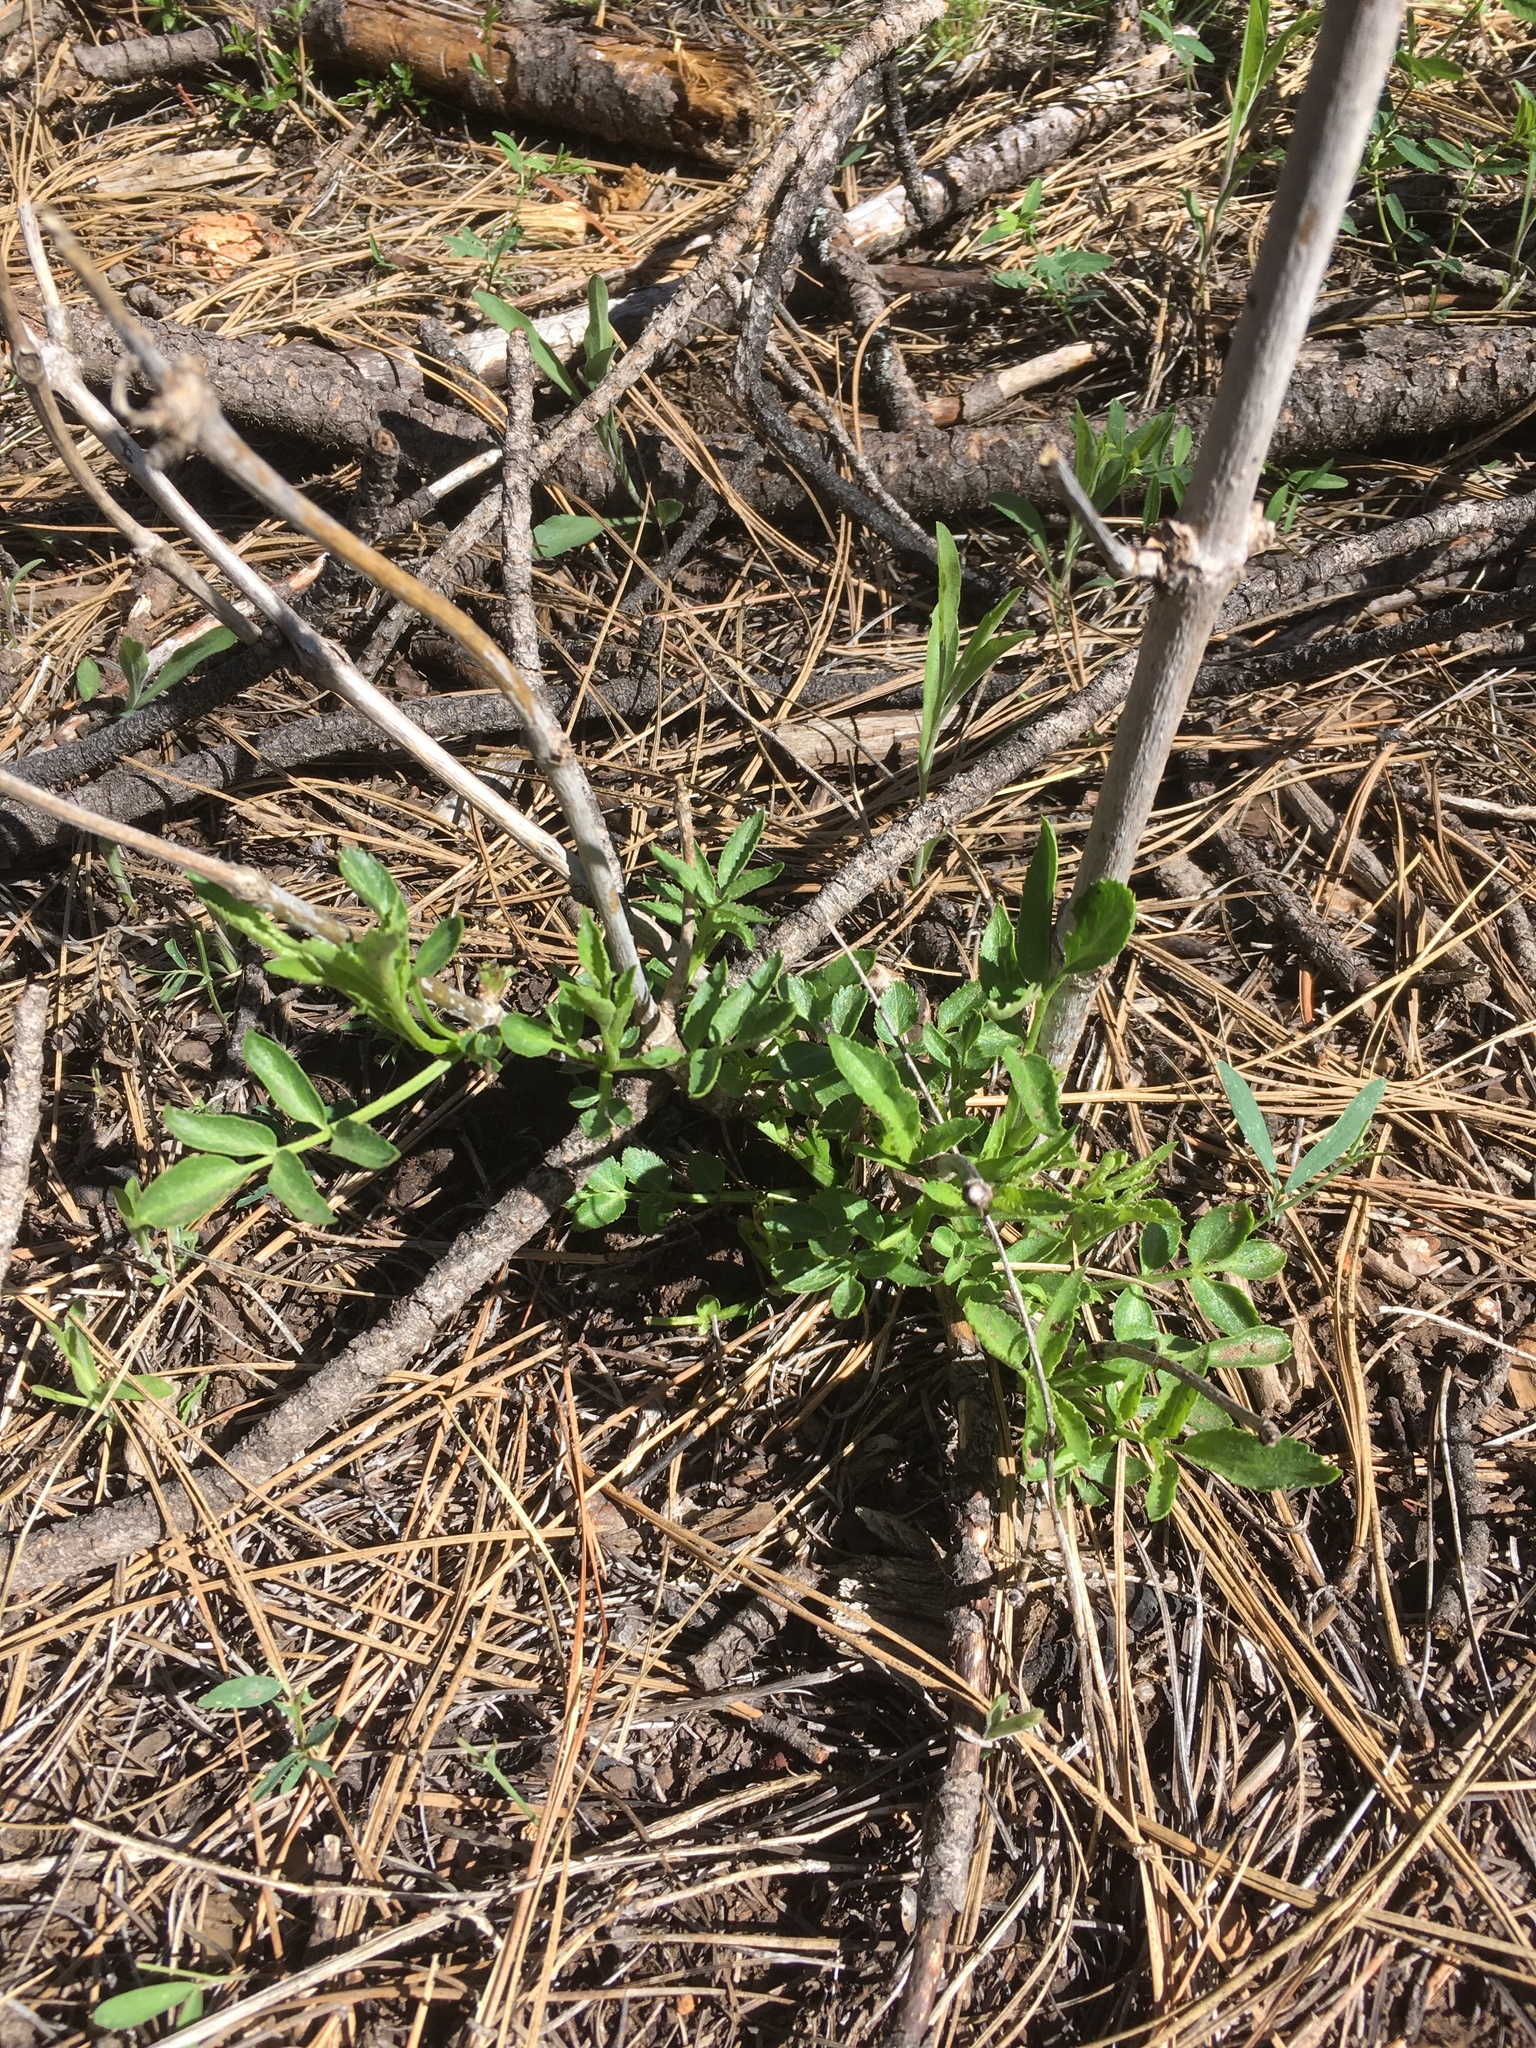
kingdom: Plantae
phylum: Tracheophyta
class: Magnoliopsida
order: Dipsacales
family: Viburnaceae
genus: Sambucus
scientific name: Sambucus cerulea
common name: Blue elder
